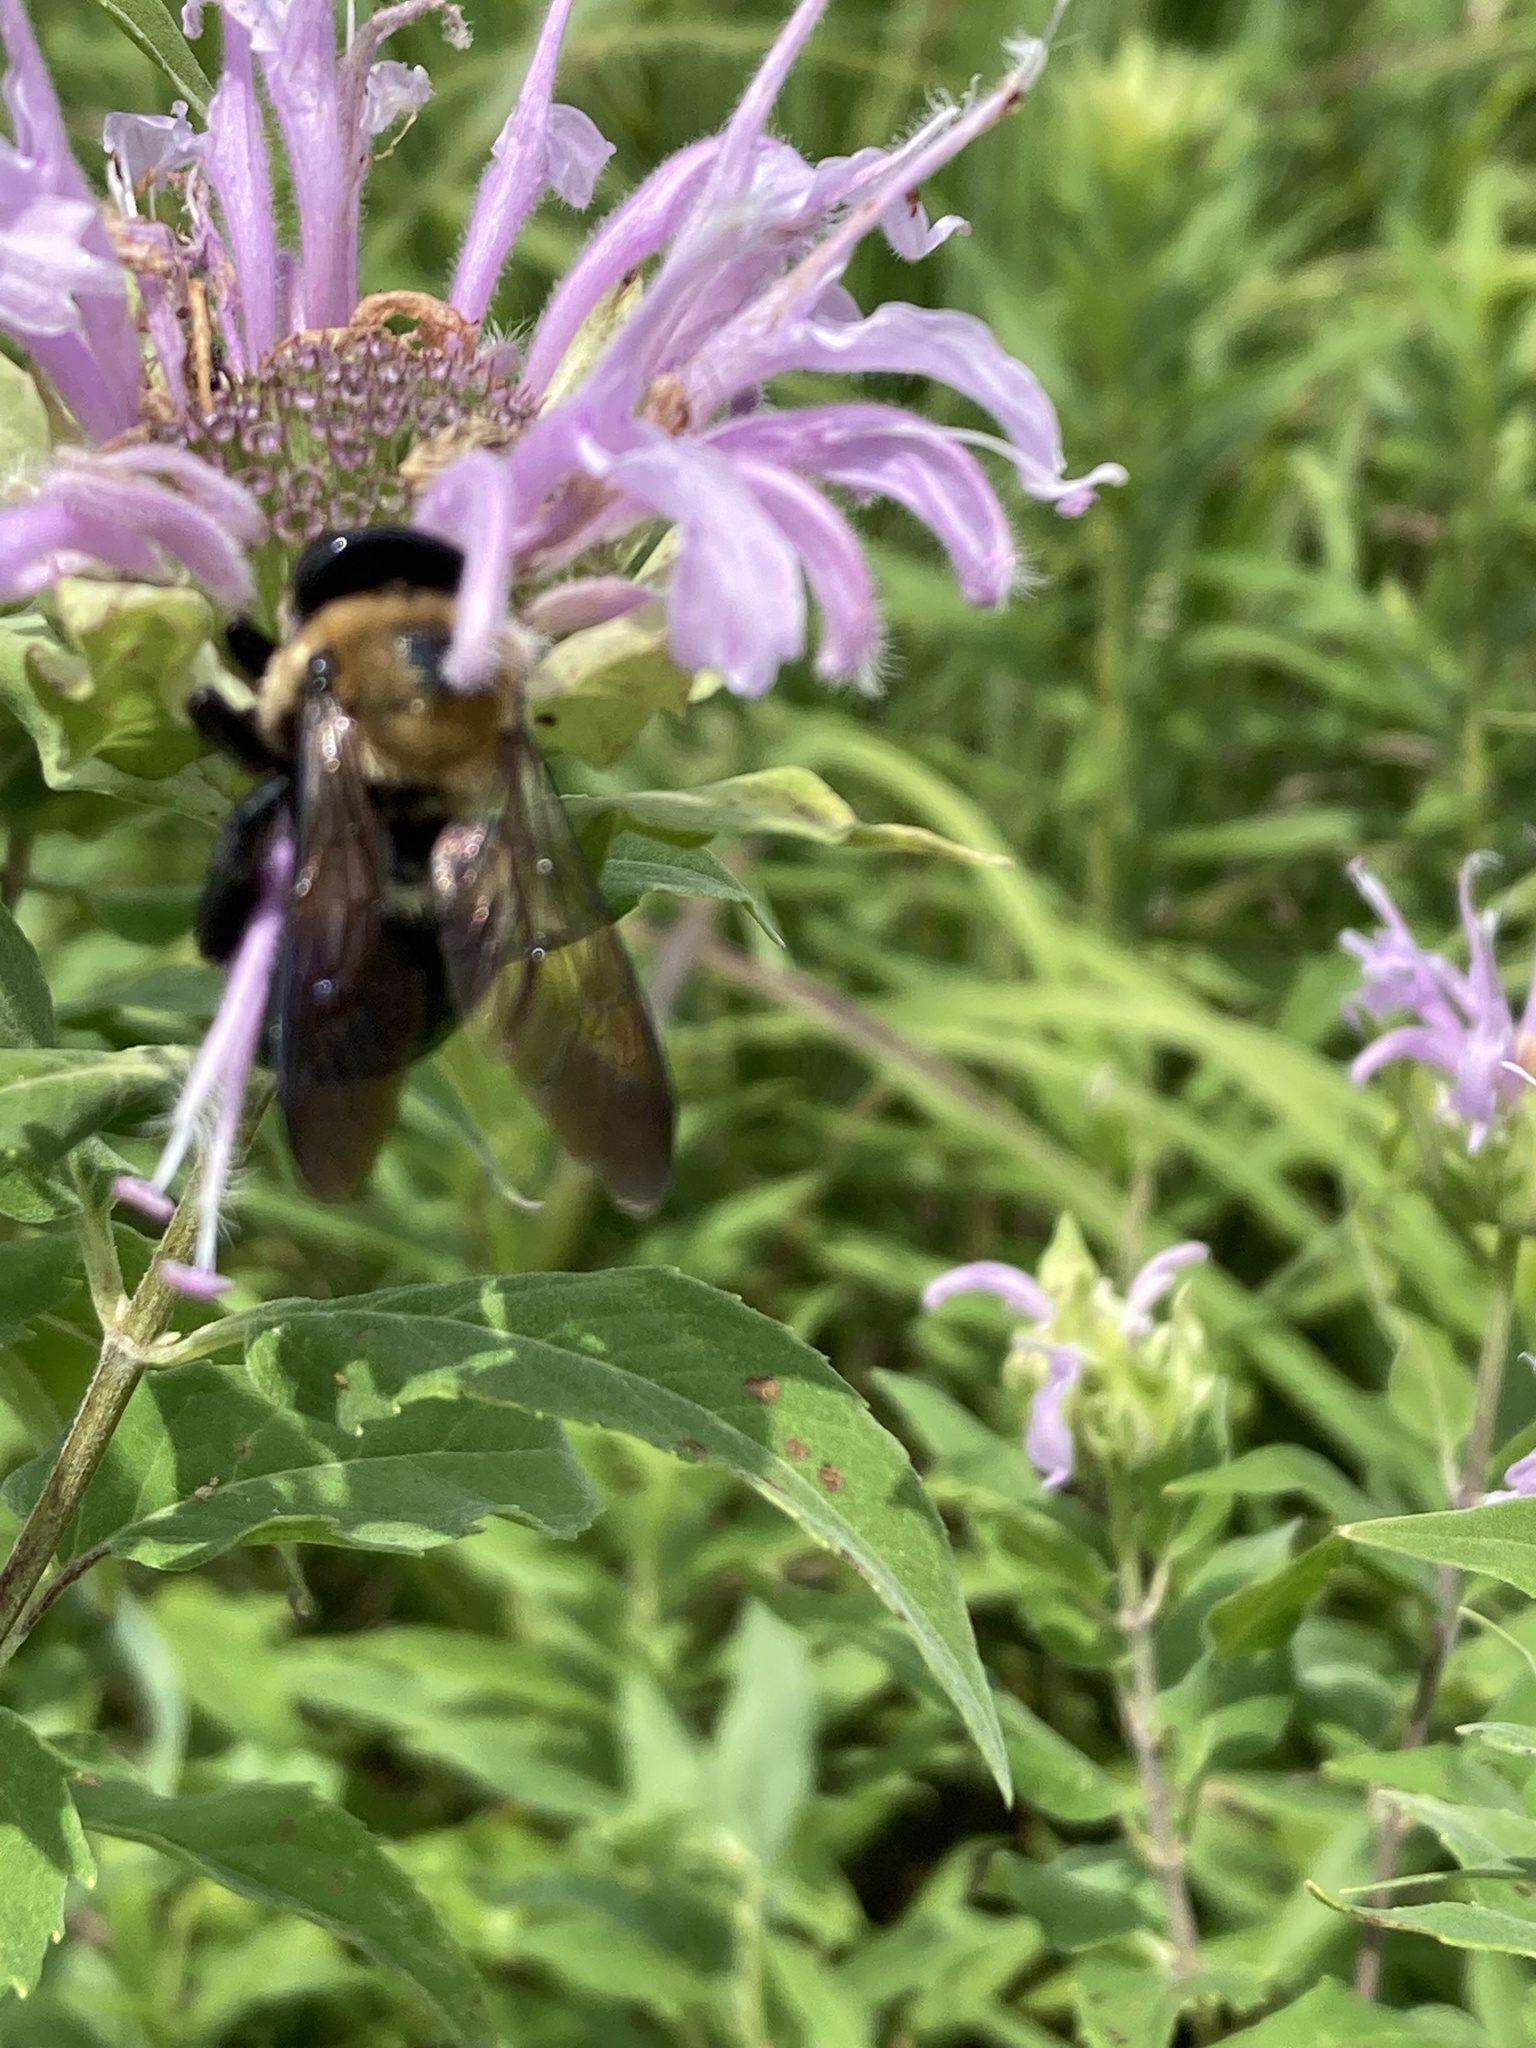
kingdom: Animalia
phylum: Arthropoda
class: Insecta
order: Hymenoptera
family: Apidae
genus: Xylocopa
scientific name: Xylocopa virginica
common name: Carpenter bee
